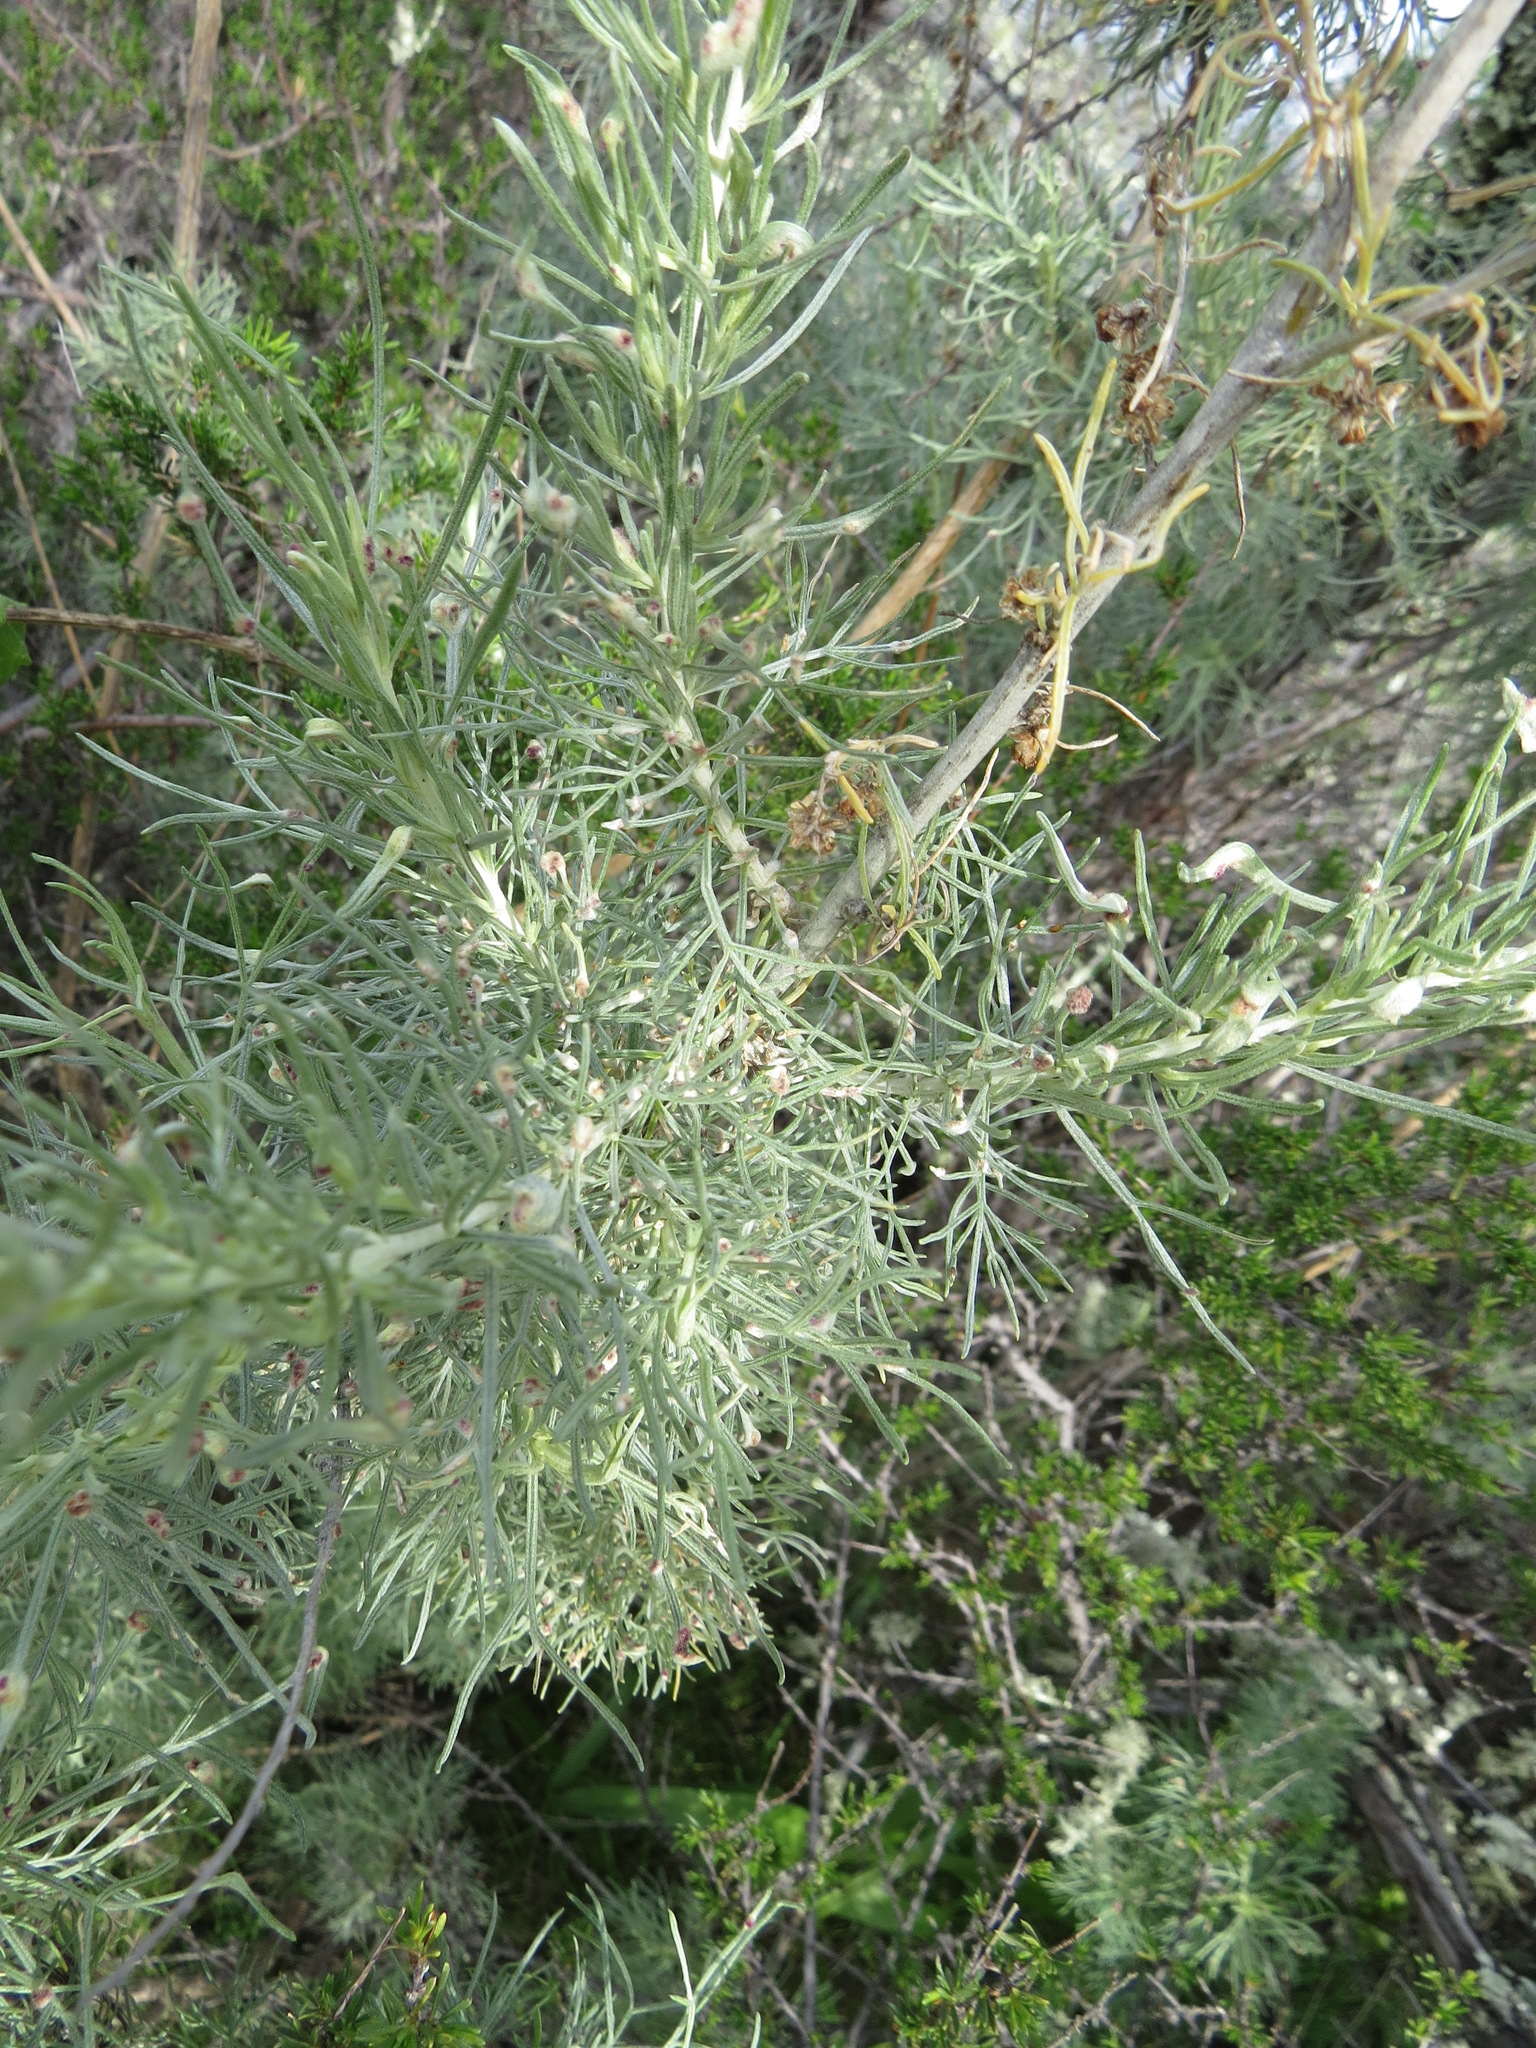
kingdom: Animalia
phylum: Arthropoda
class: Arachnida
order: Trombidiformes
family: Eriophyidae
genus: Aceria
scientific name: Aceria
